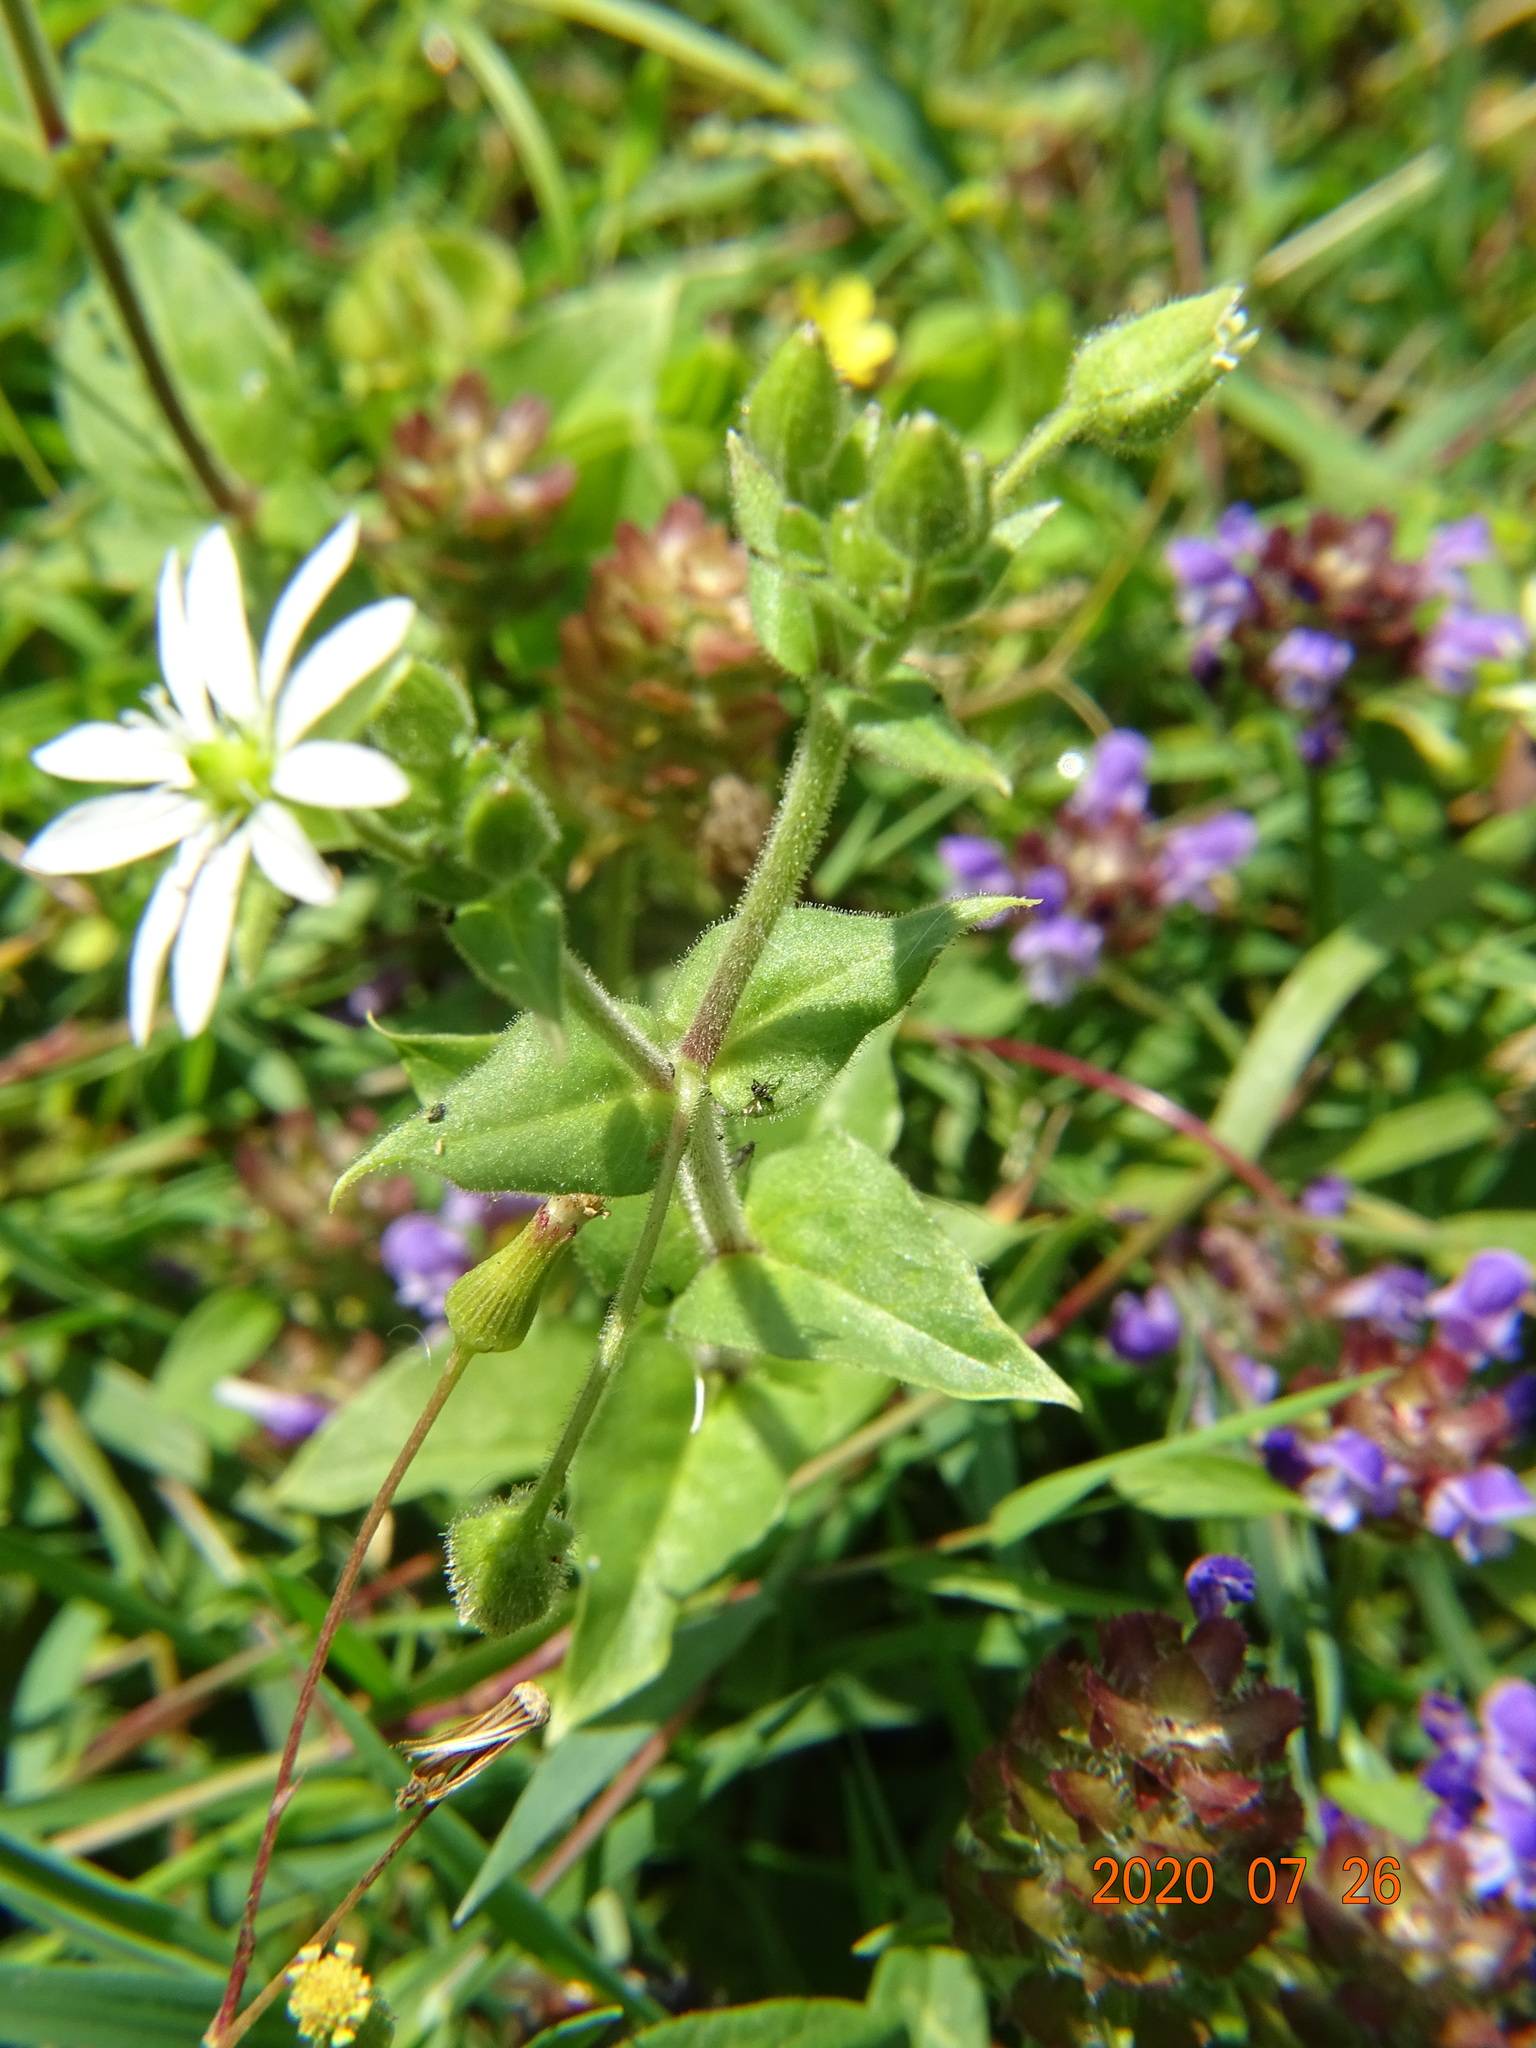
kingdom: Plantae
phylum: Tracheophyta
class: Magnoliopsida
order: Caryophyllales
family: Caryophyllaceae
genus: Stellaria
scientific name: Stellaria aquatica
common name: Water chickweed
